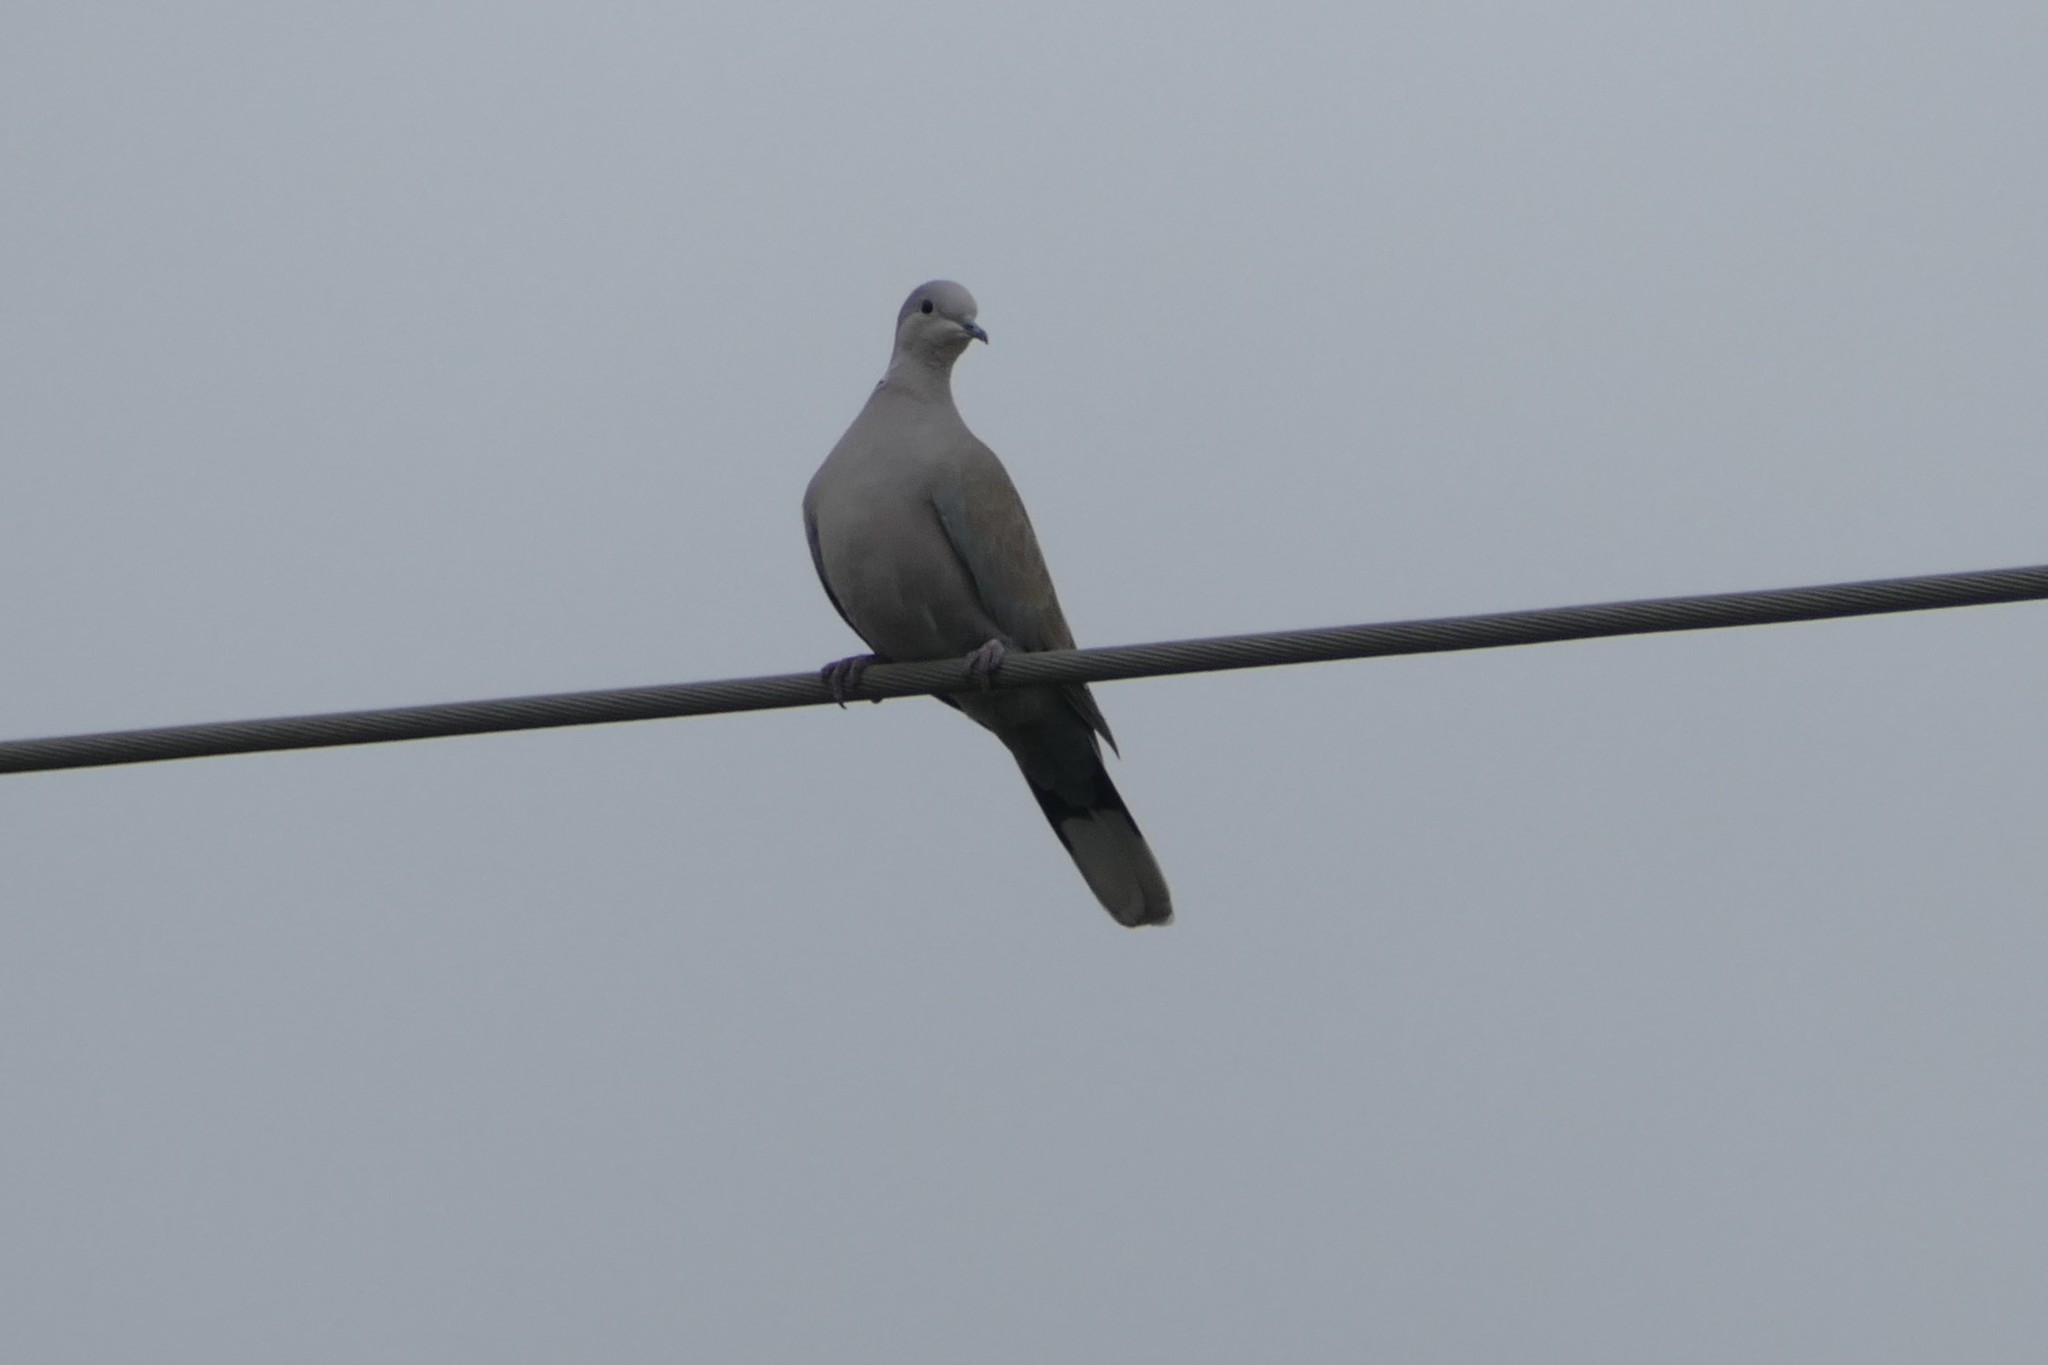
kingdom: Animalia
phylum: Chordata
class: Aves
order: Columbiformes
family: Columbidae
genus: Streptopelia
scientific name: Streptopelia decaocto
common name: Eurasian collared dove
